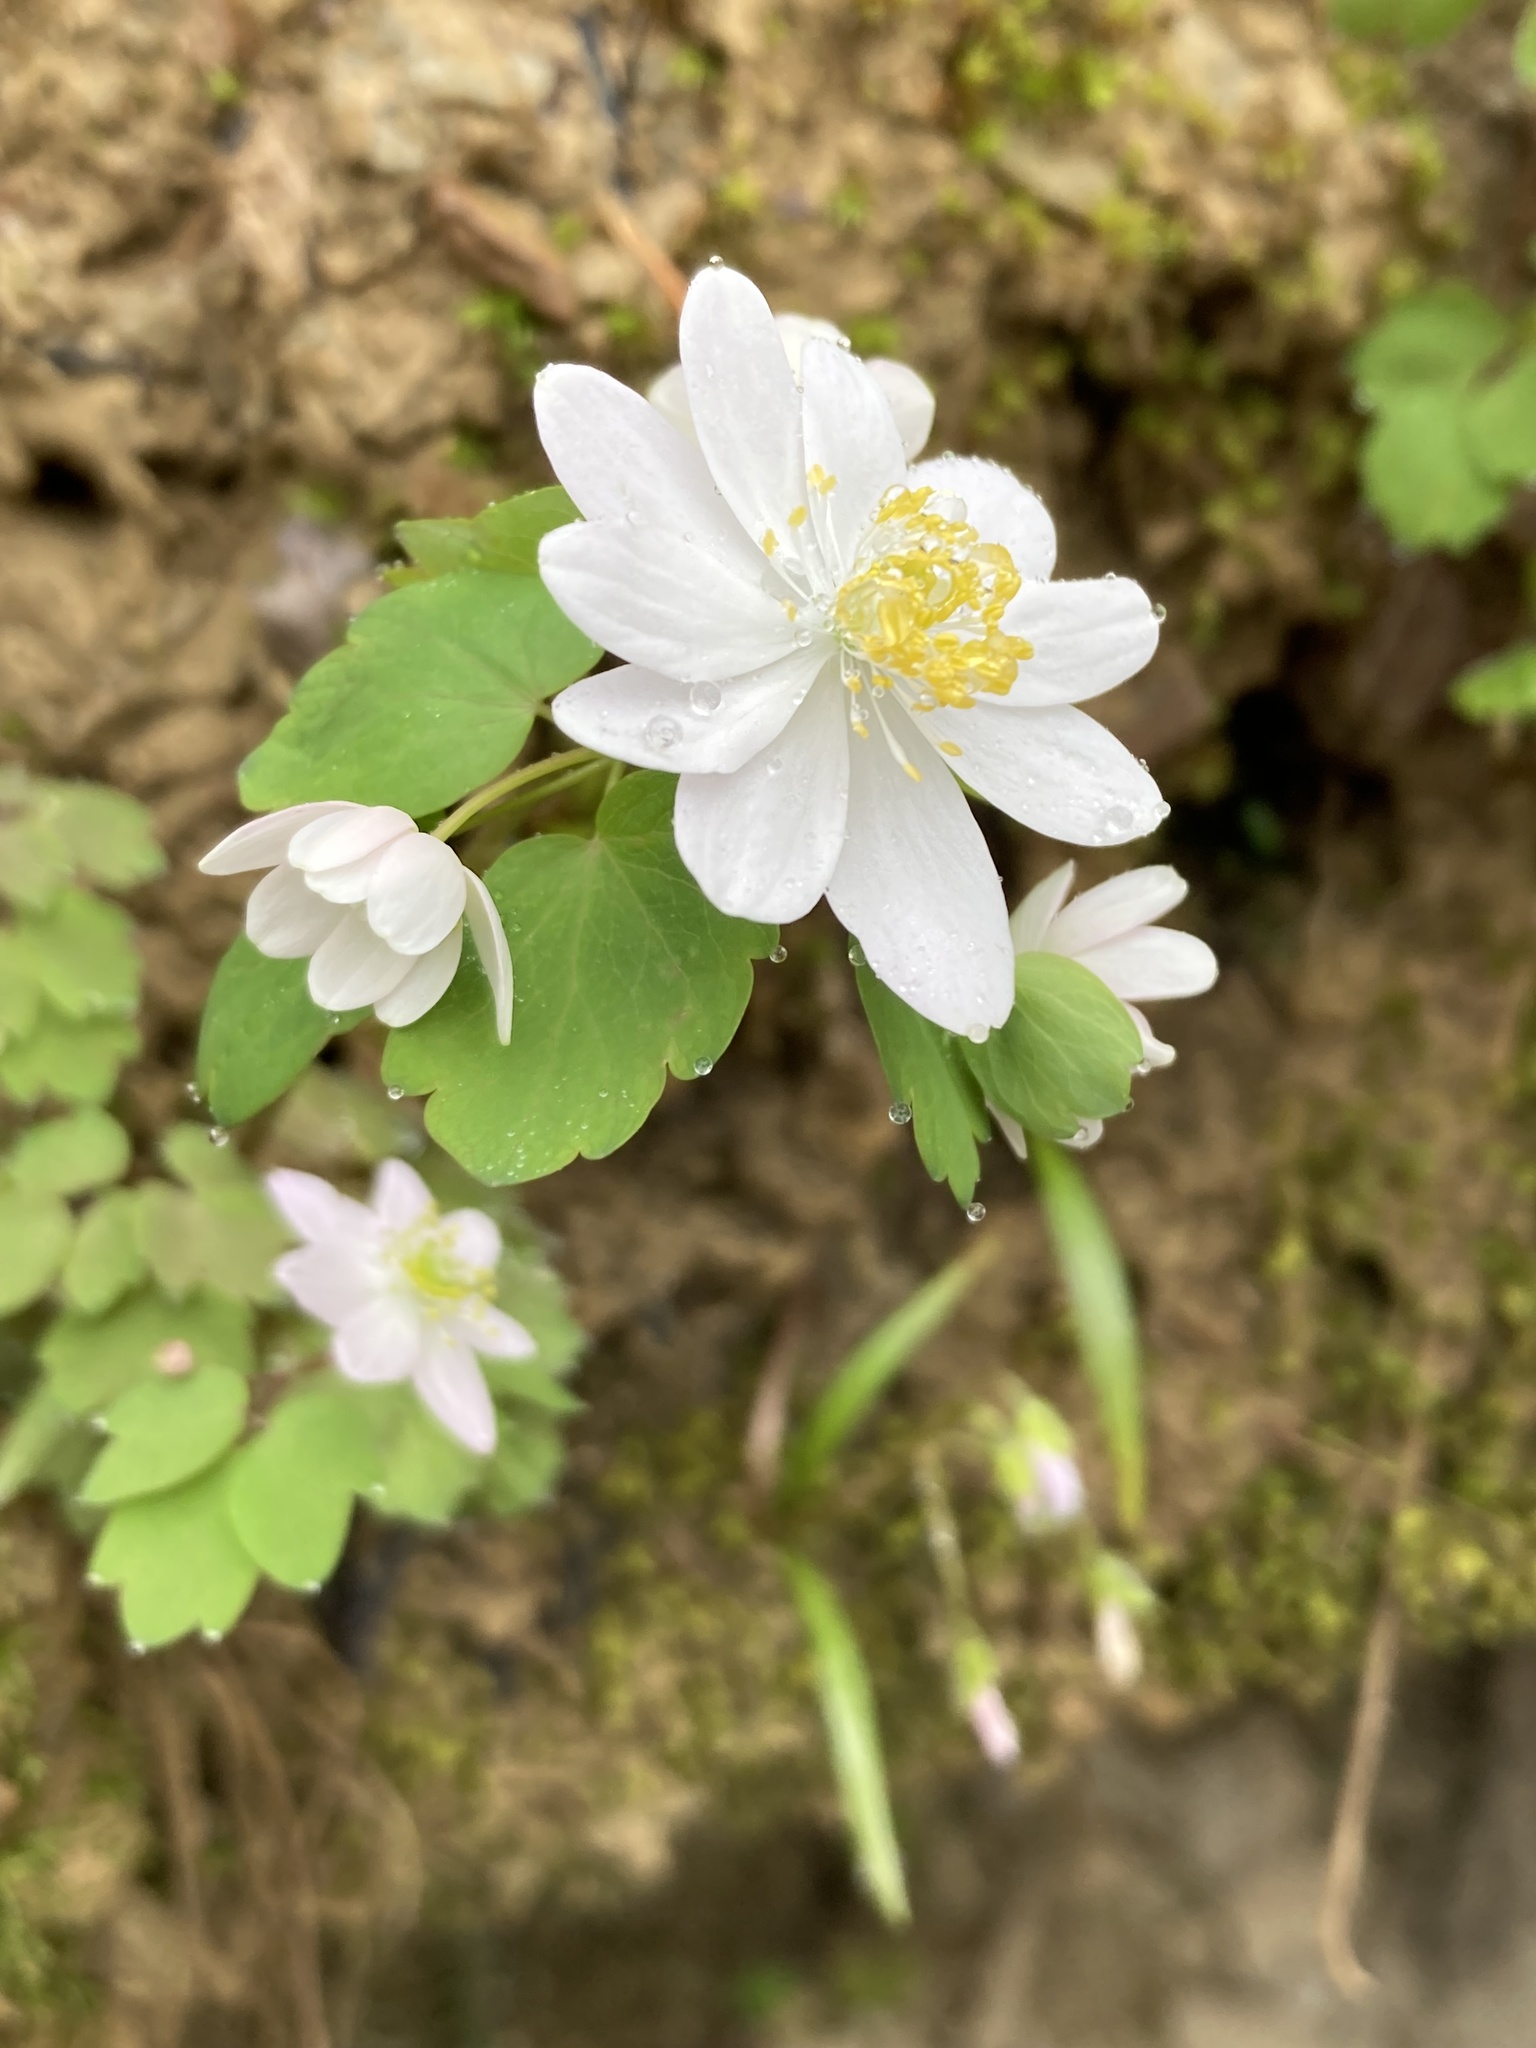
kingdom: Plantae
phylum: Tracheophyta
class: Magnoliopsida
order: Ranunculales
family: Ranunculaceae
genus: Thalictrum
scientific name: Thalictrum thalictroides
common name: Rue-anemone
